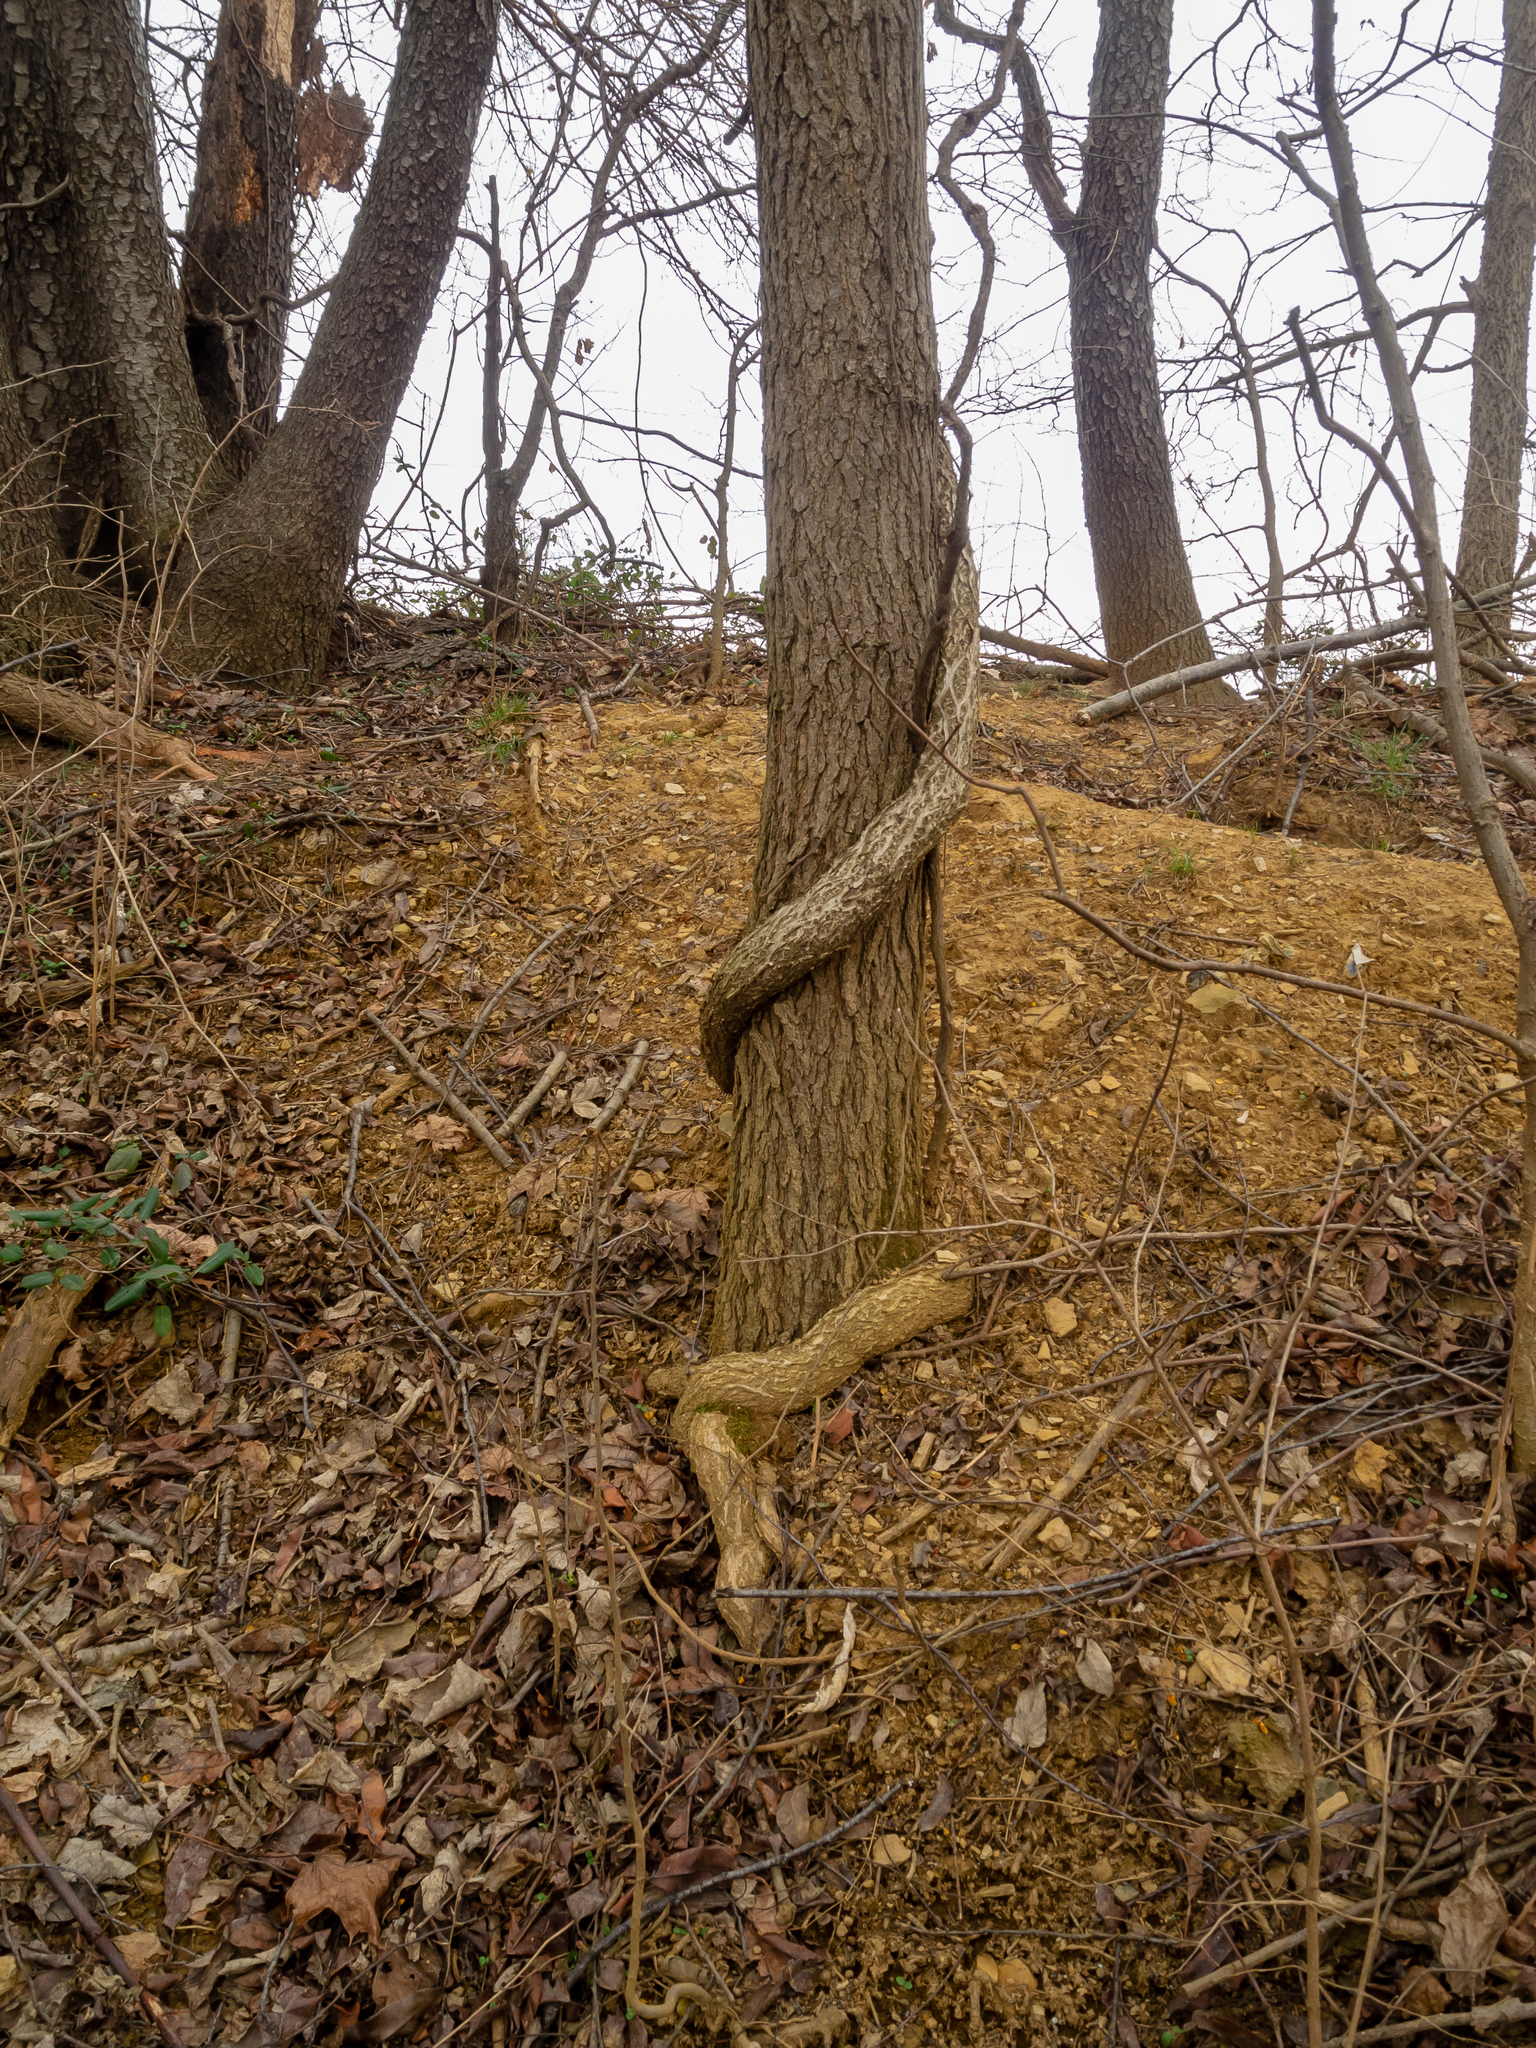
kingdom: Plantae
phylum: Tracheophyta
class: Magnoliopsida
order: Celastrales
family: Celastraceae
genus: Celastrus
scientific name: Celastrus orbiculatus
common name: Oriental bittersweet
